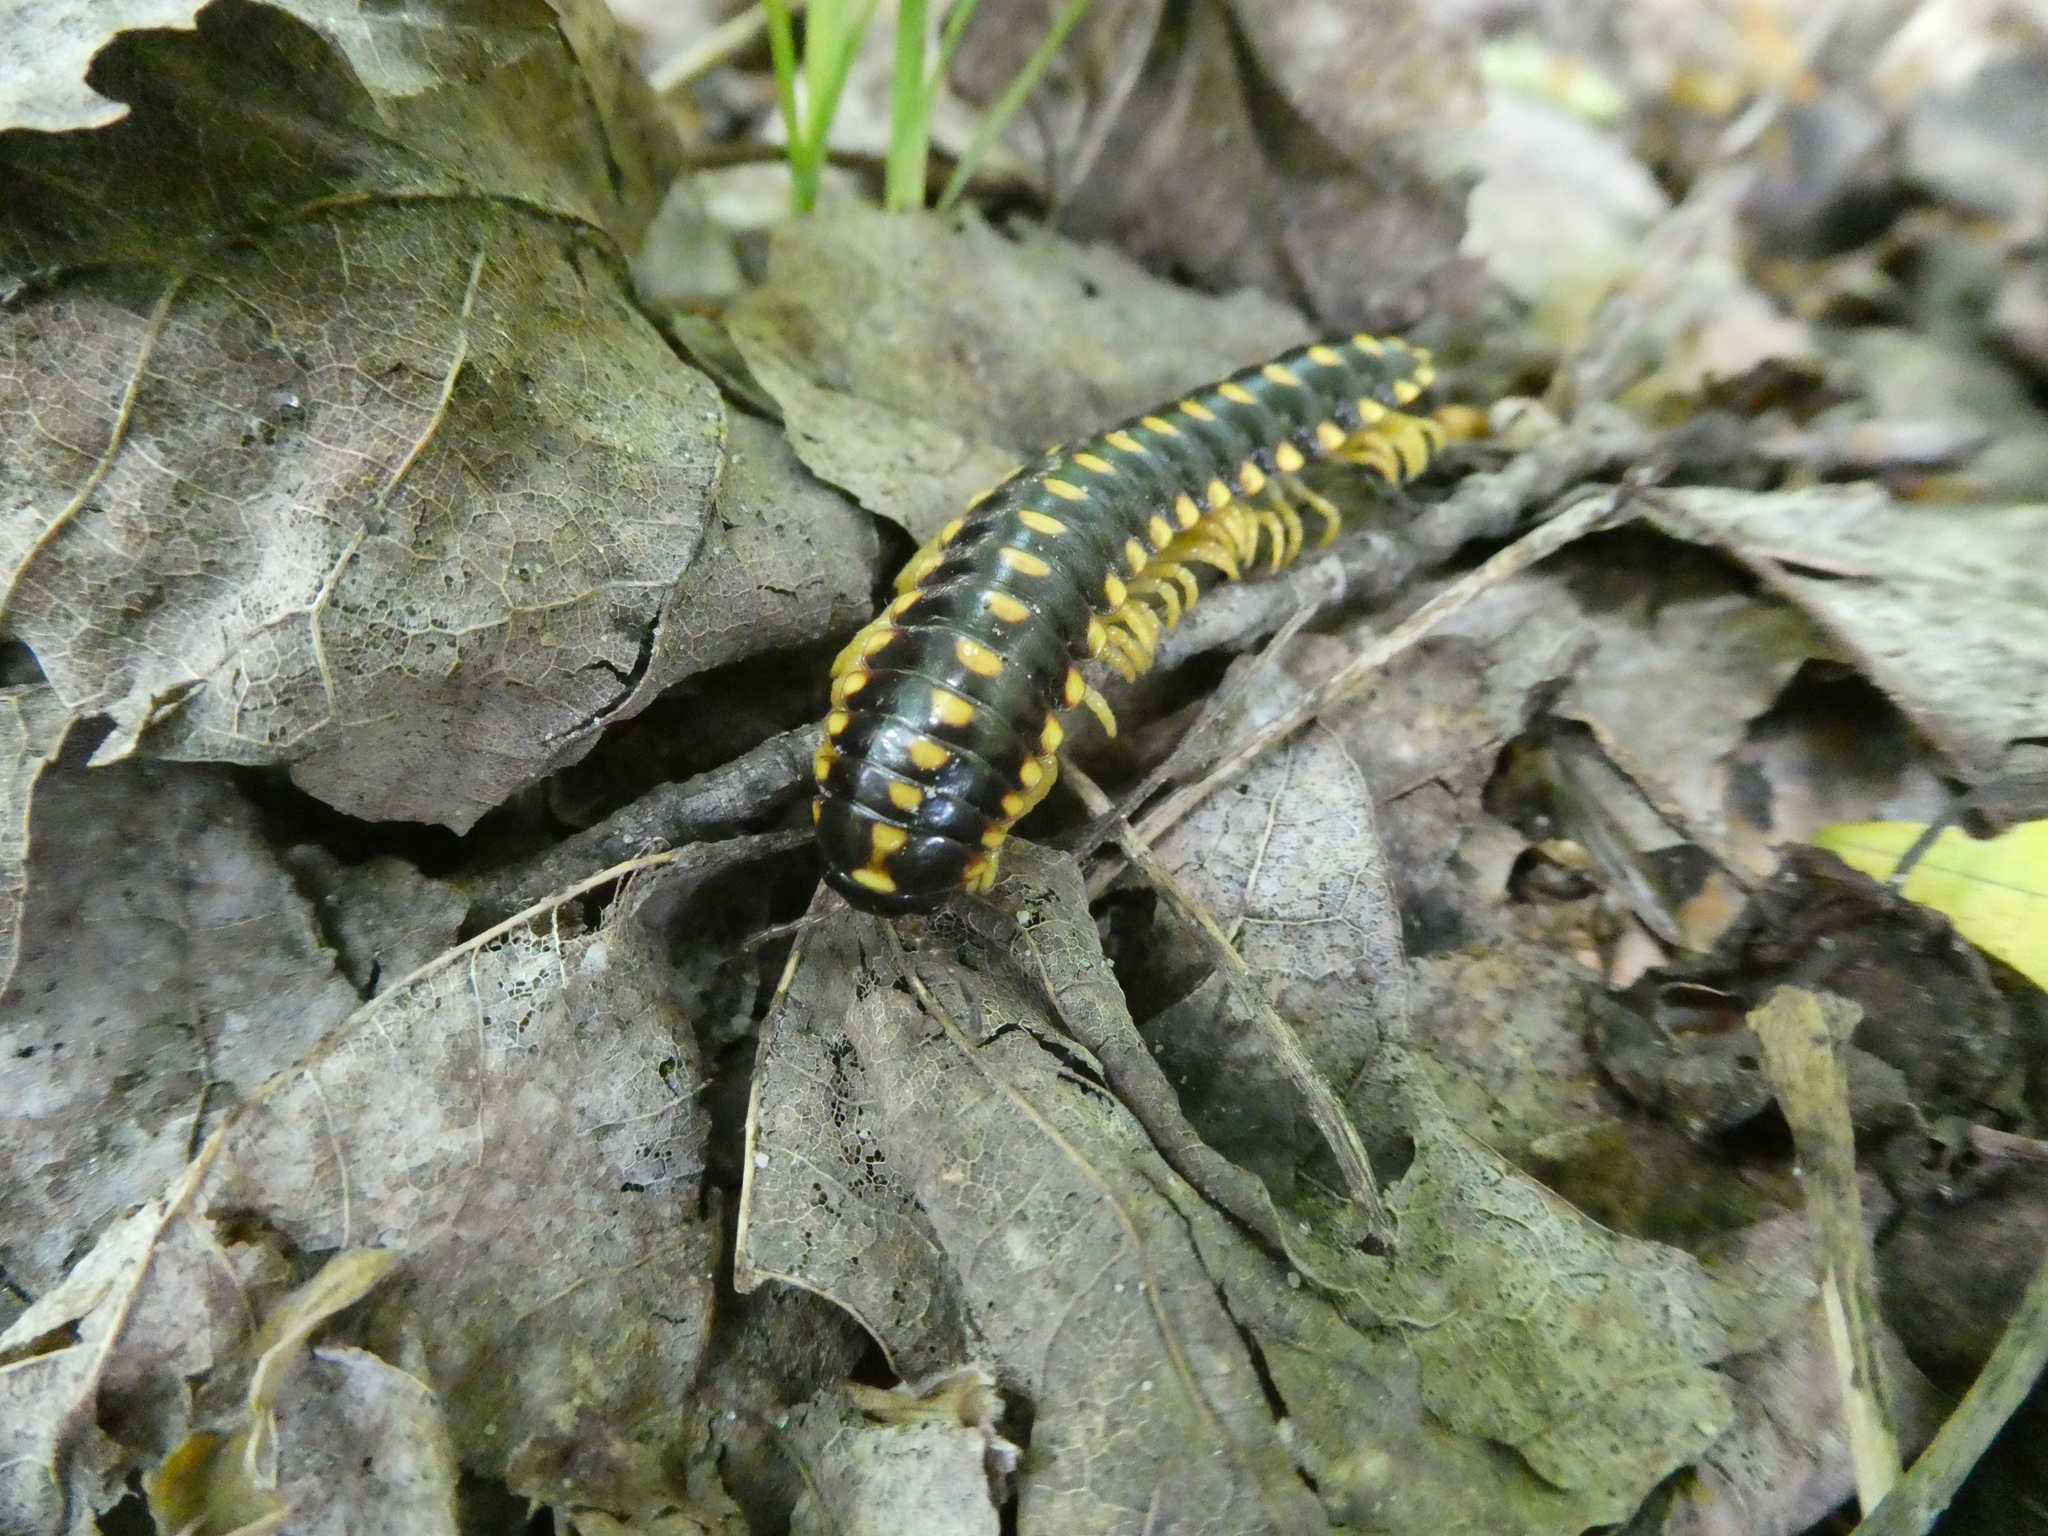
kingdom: Animalia
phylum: Arthropoda
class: Diplopoda
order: Polydesmida
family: Xystodesmidae
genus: Rudiloria
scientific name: Rudiloria trimaculata
